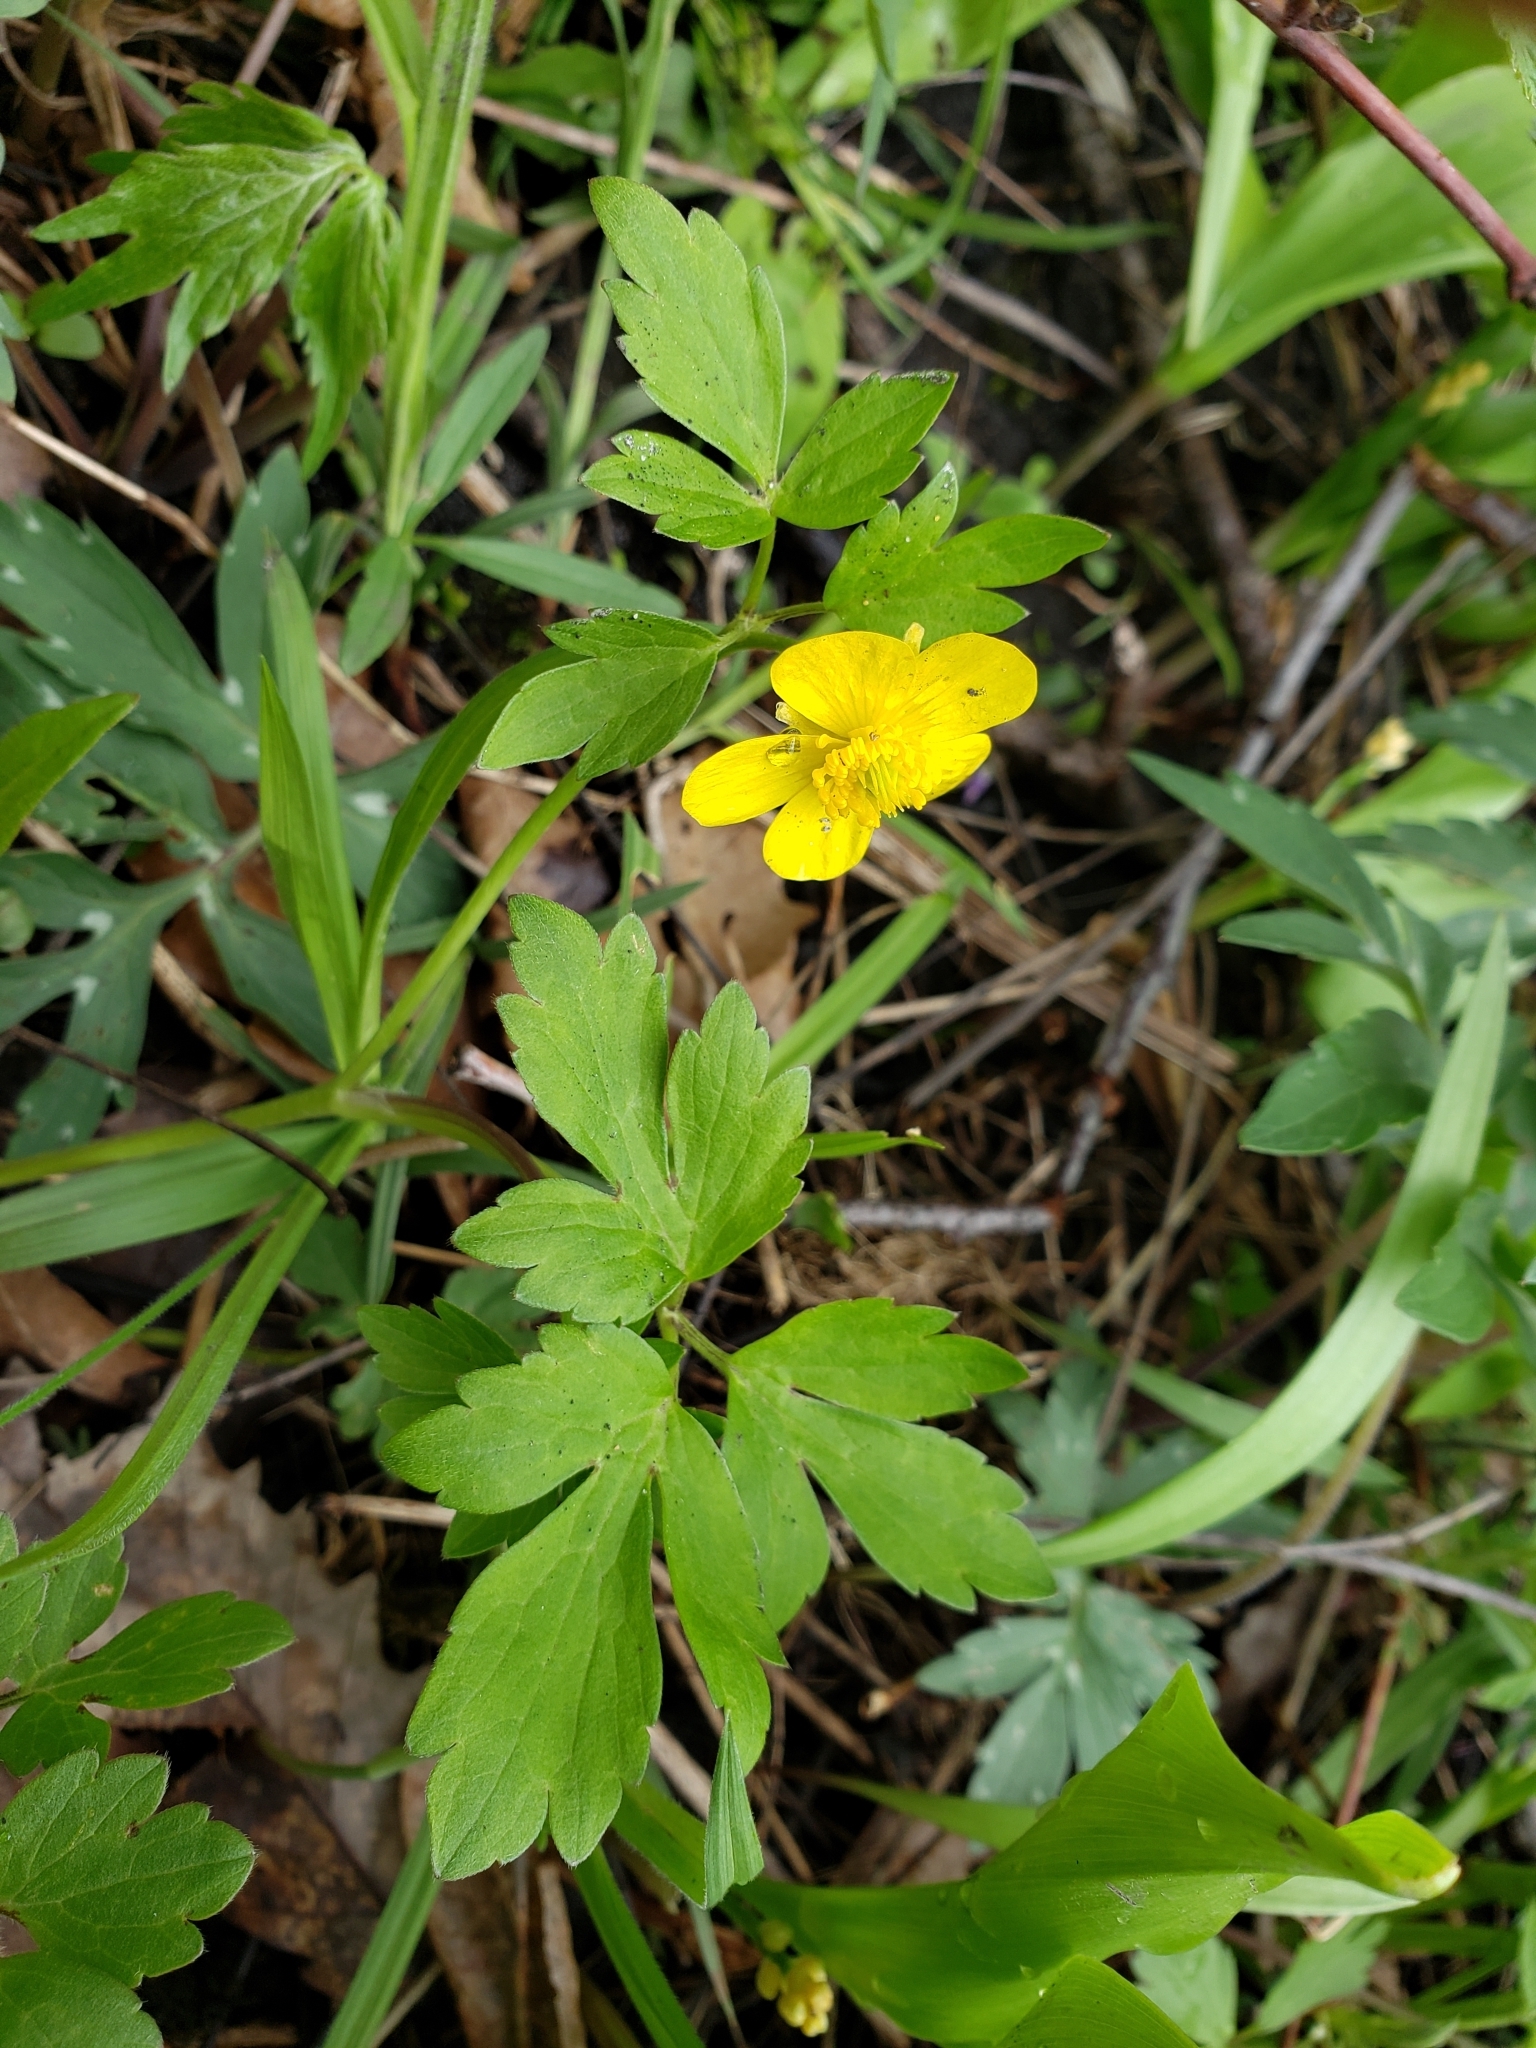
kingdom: Plantae
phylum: Tracheophyta
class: Magnoliopsida
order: Ranunculales
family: Ranunculaceae
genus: Ranunculus
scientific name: Ranunculus hispidus
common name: Bristly buttercup
